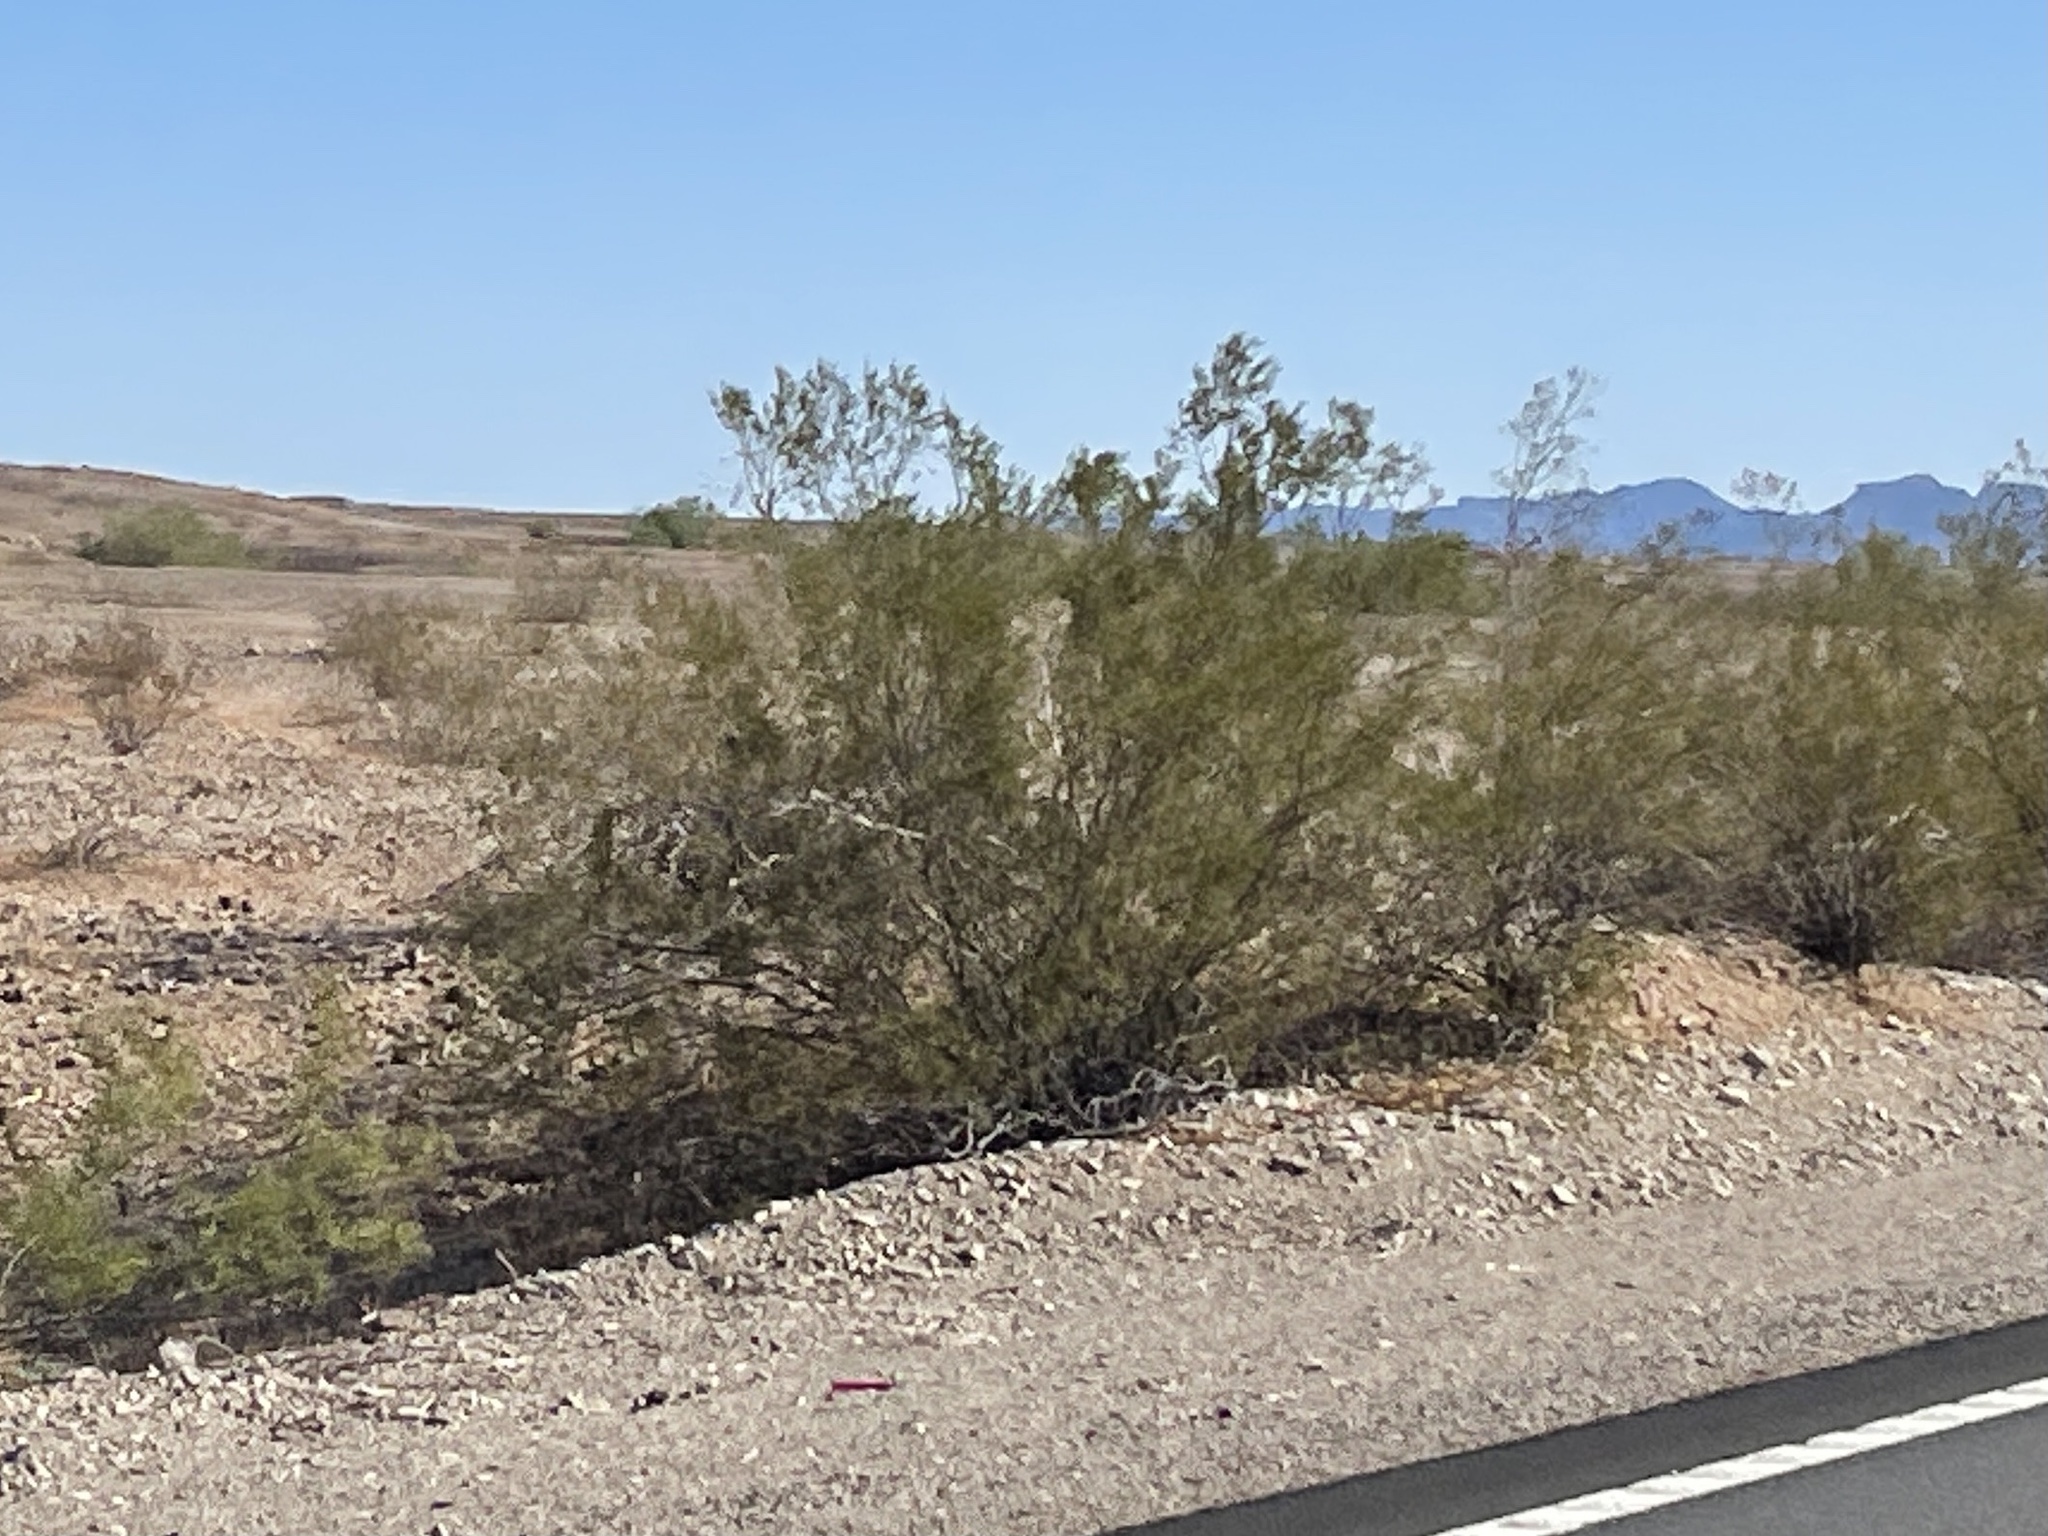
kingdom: Plantae
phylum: Tracheophyta
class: Magnoliopsida
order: Zygophyllales
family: Zygophyllaceae
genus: Larrea
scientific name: Larrea tridentata
